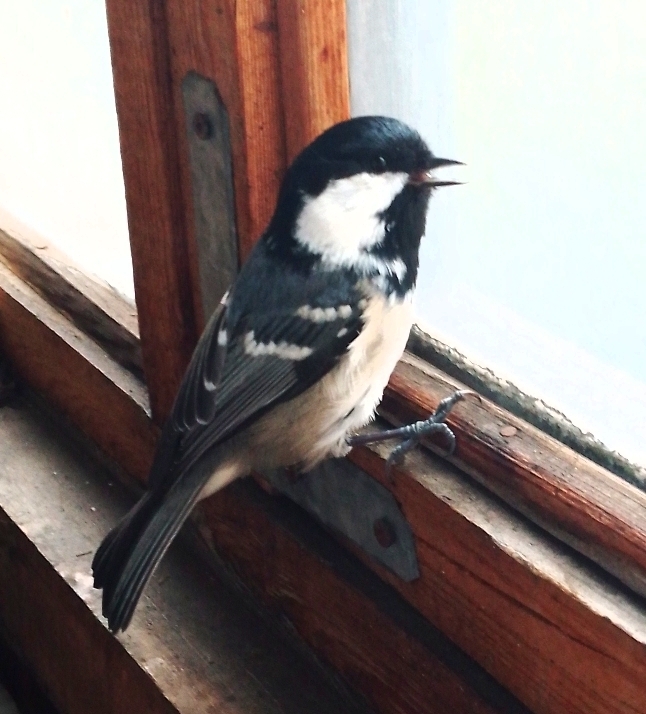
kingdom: Animalia
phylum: Chordata
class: Aves
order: Passeriformes
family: Paridae
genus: Periparus
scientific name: Periparus ater
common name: Coal tit
